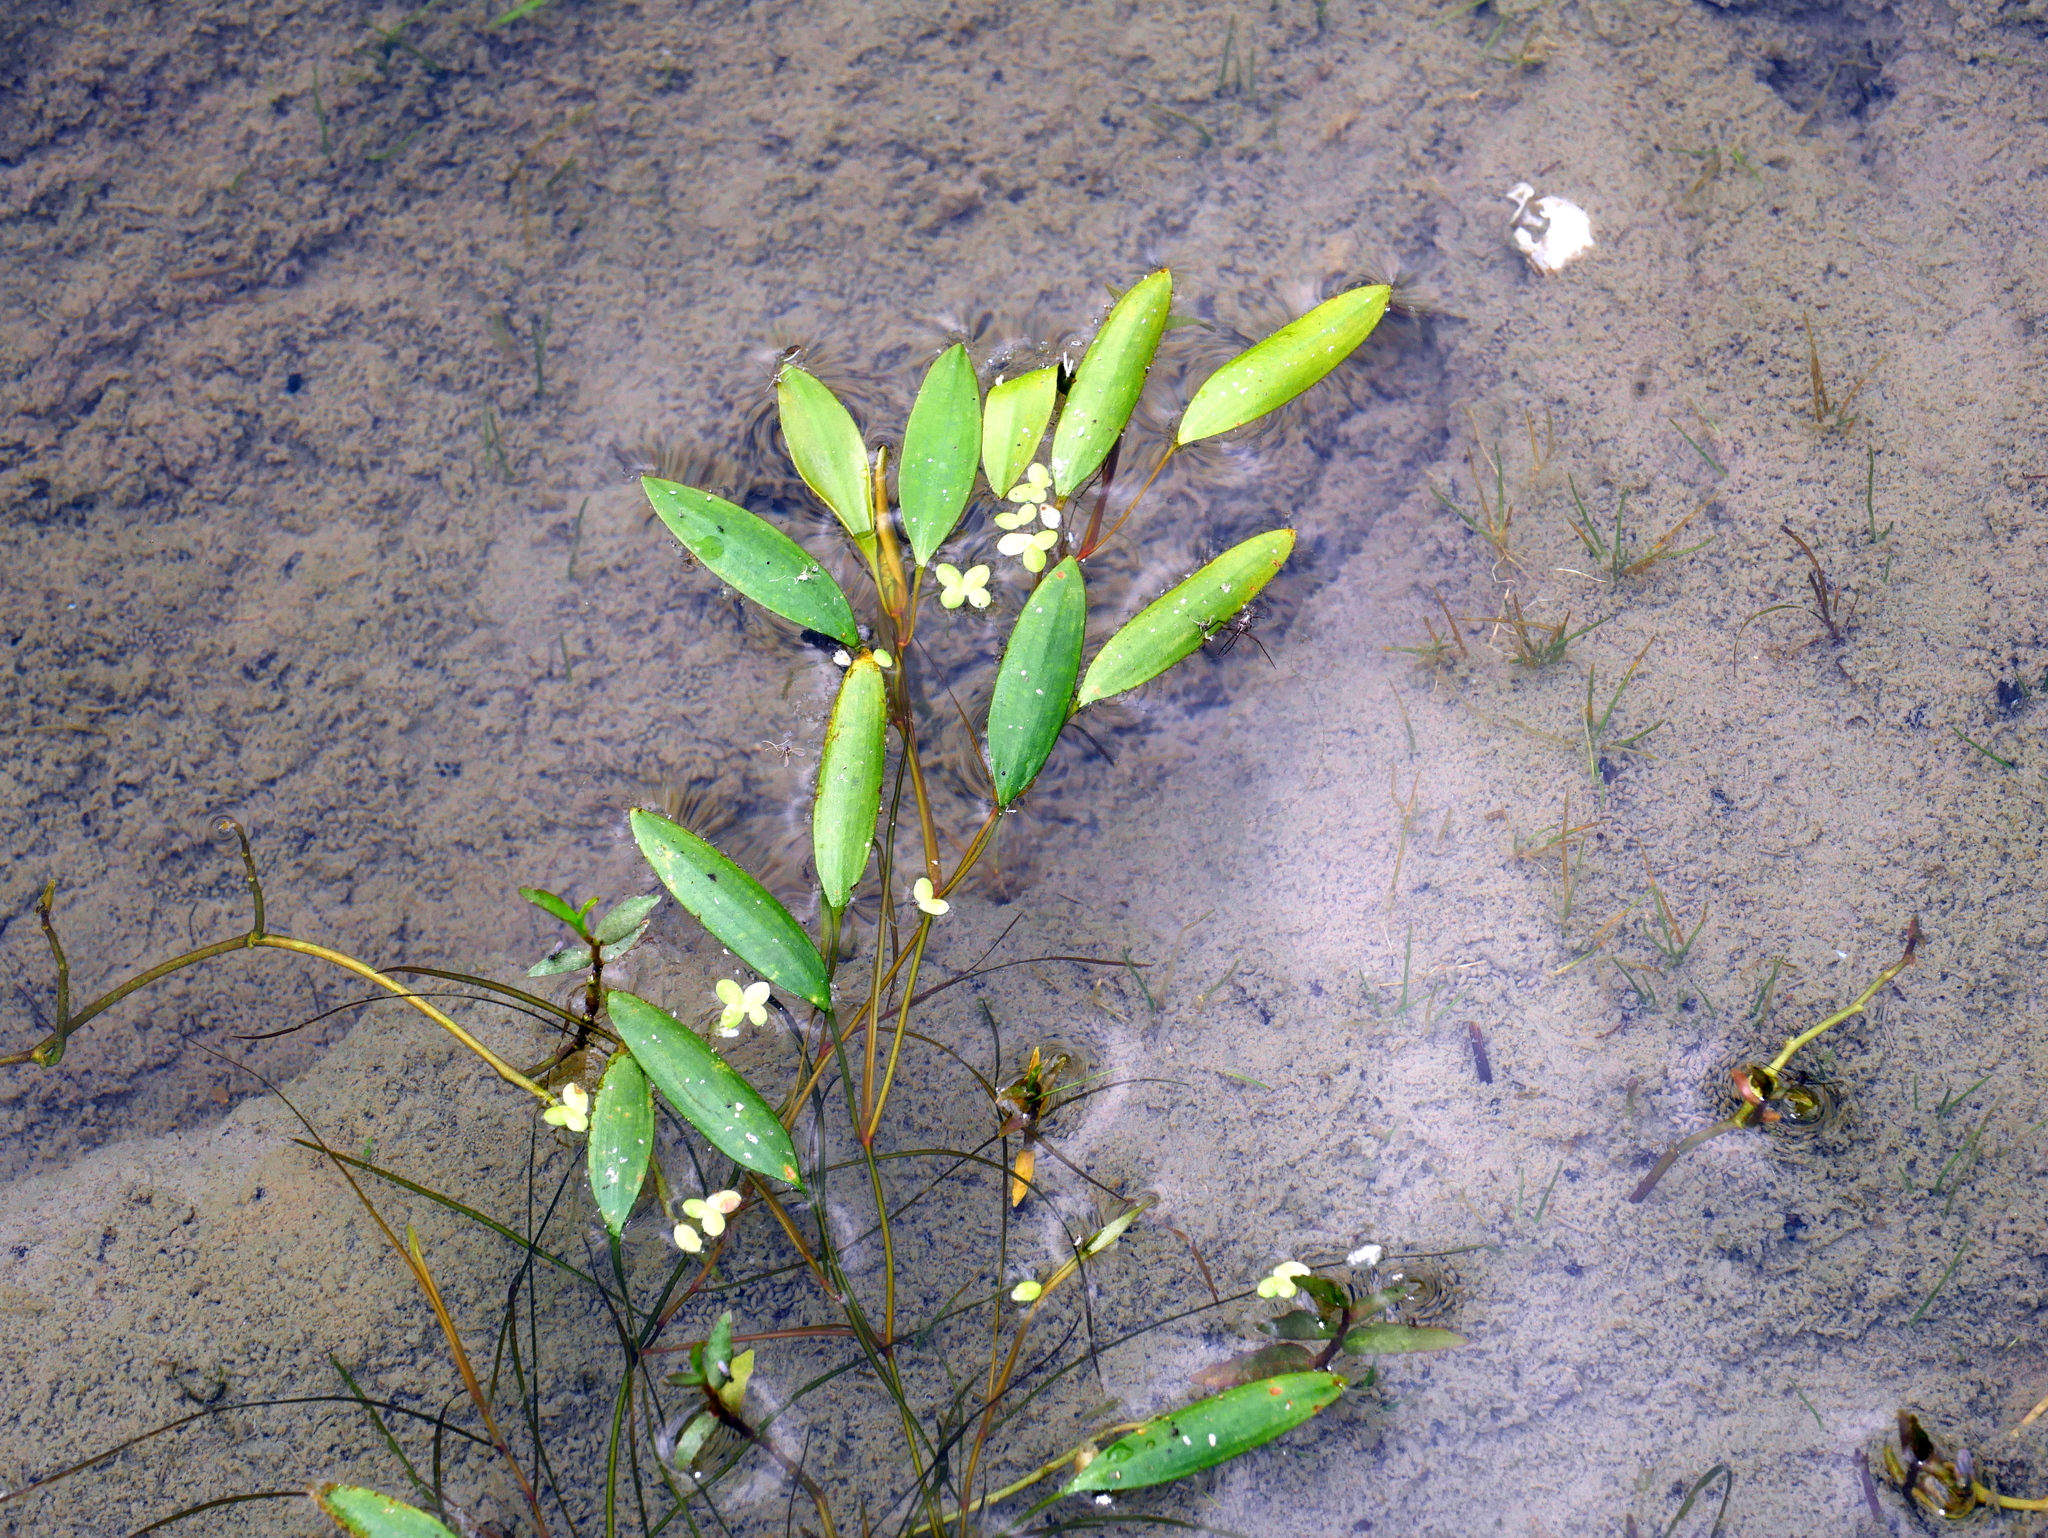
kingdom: Plantae
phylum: Tracheophyta
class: Liliopsida
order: Alismatales
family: Potamogetonaceae
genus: Potamogeton
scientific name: Potamogeton octandrus
